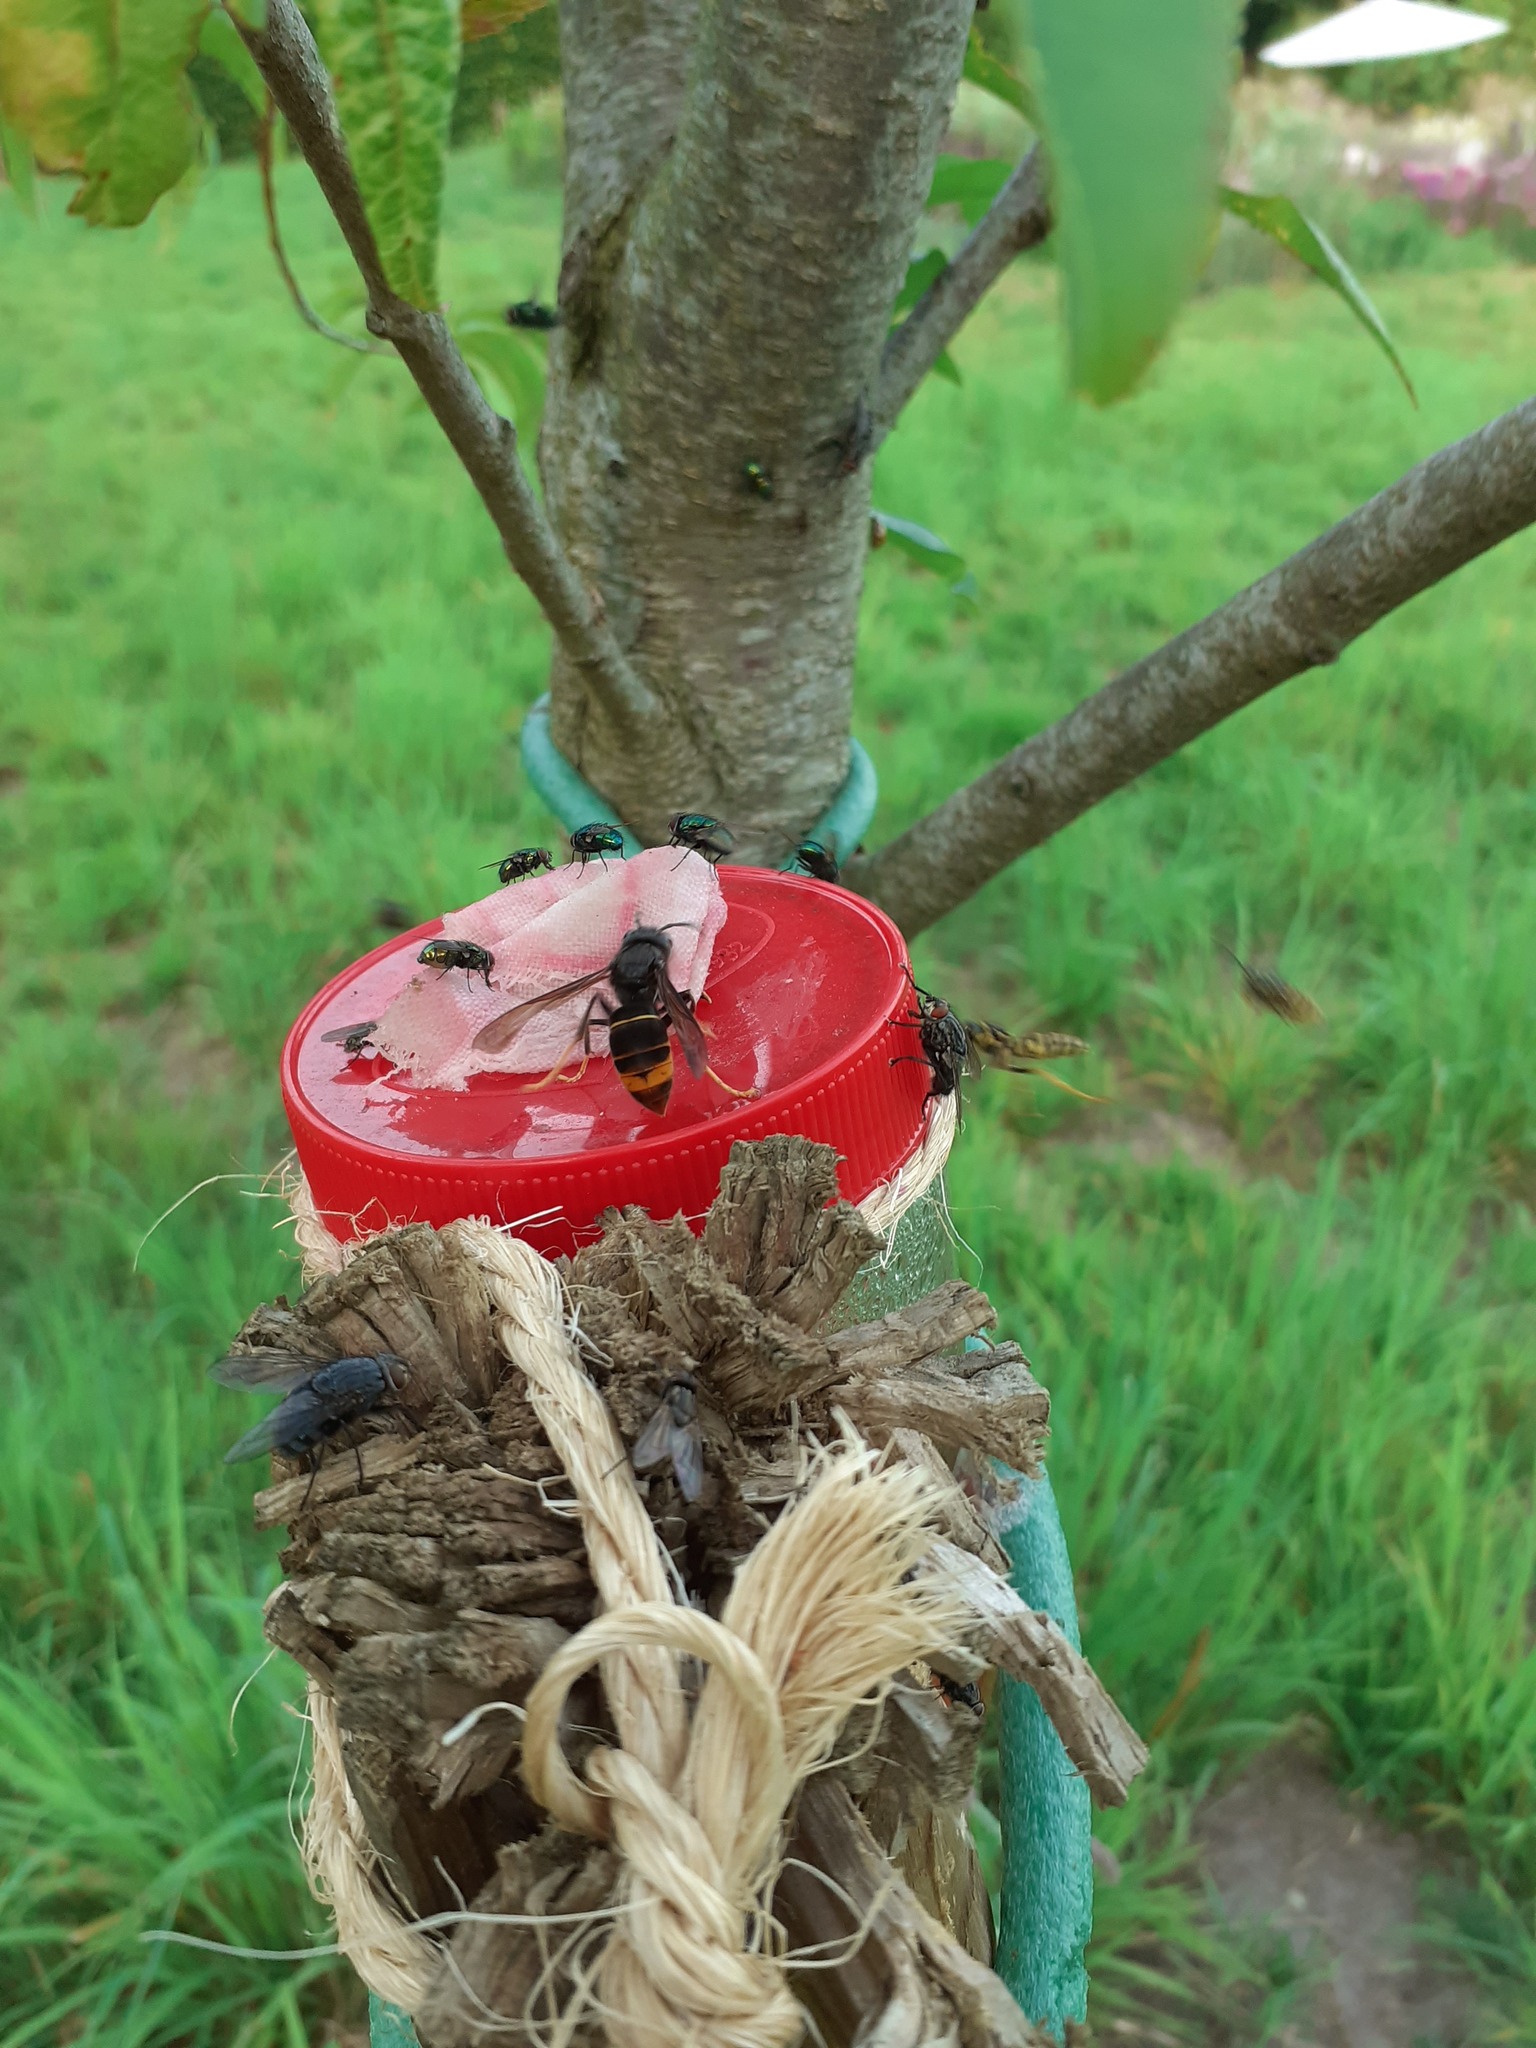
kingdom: Animalia
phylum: Arthropoda
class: Insecta
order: Hymenoptera
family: Vespidae
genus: Vespa
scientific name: Vespa velutina
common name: Asian hornet
